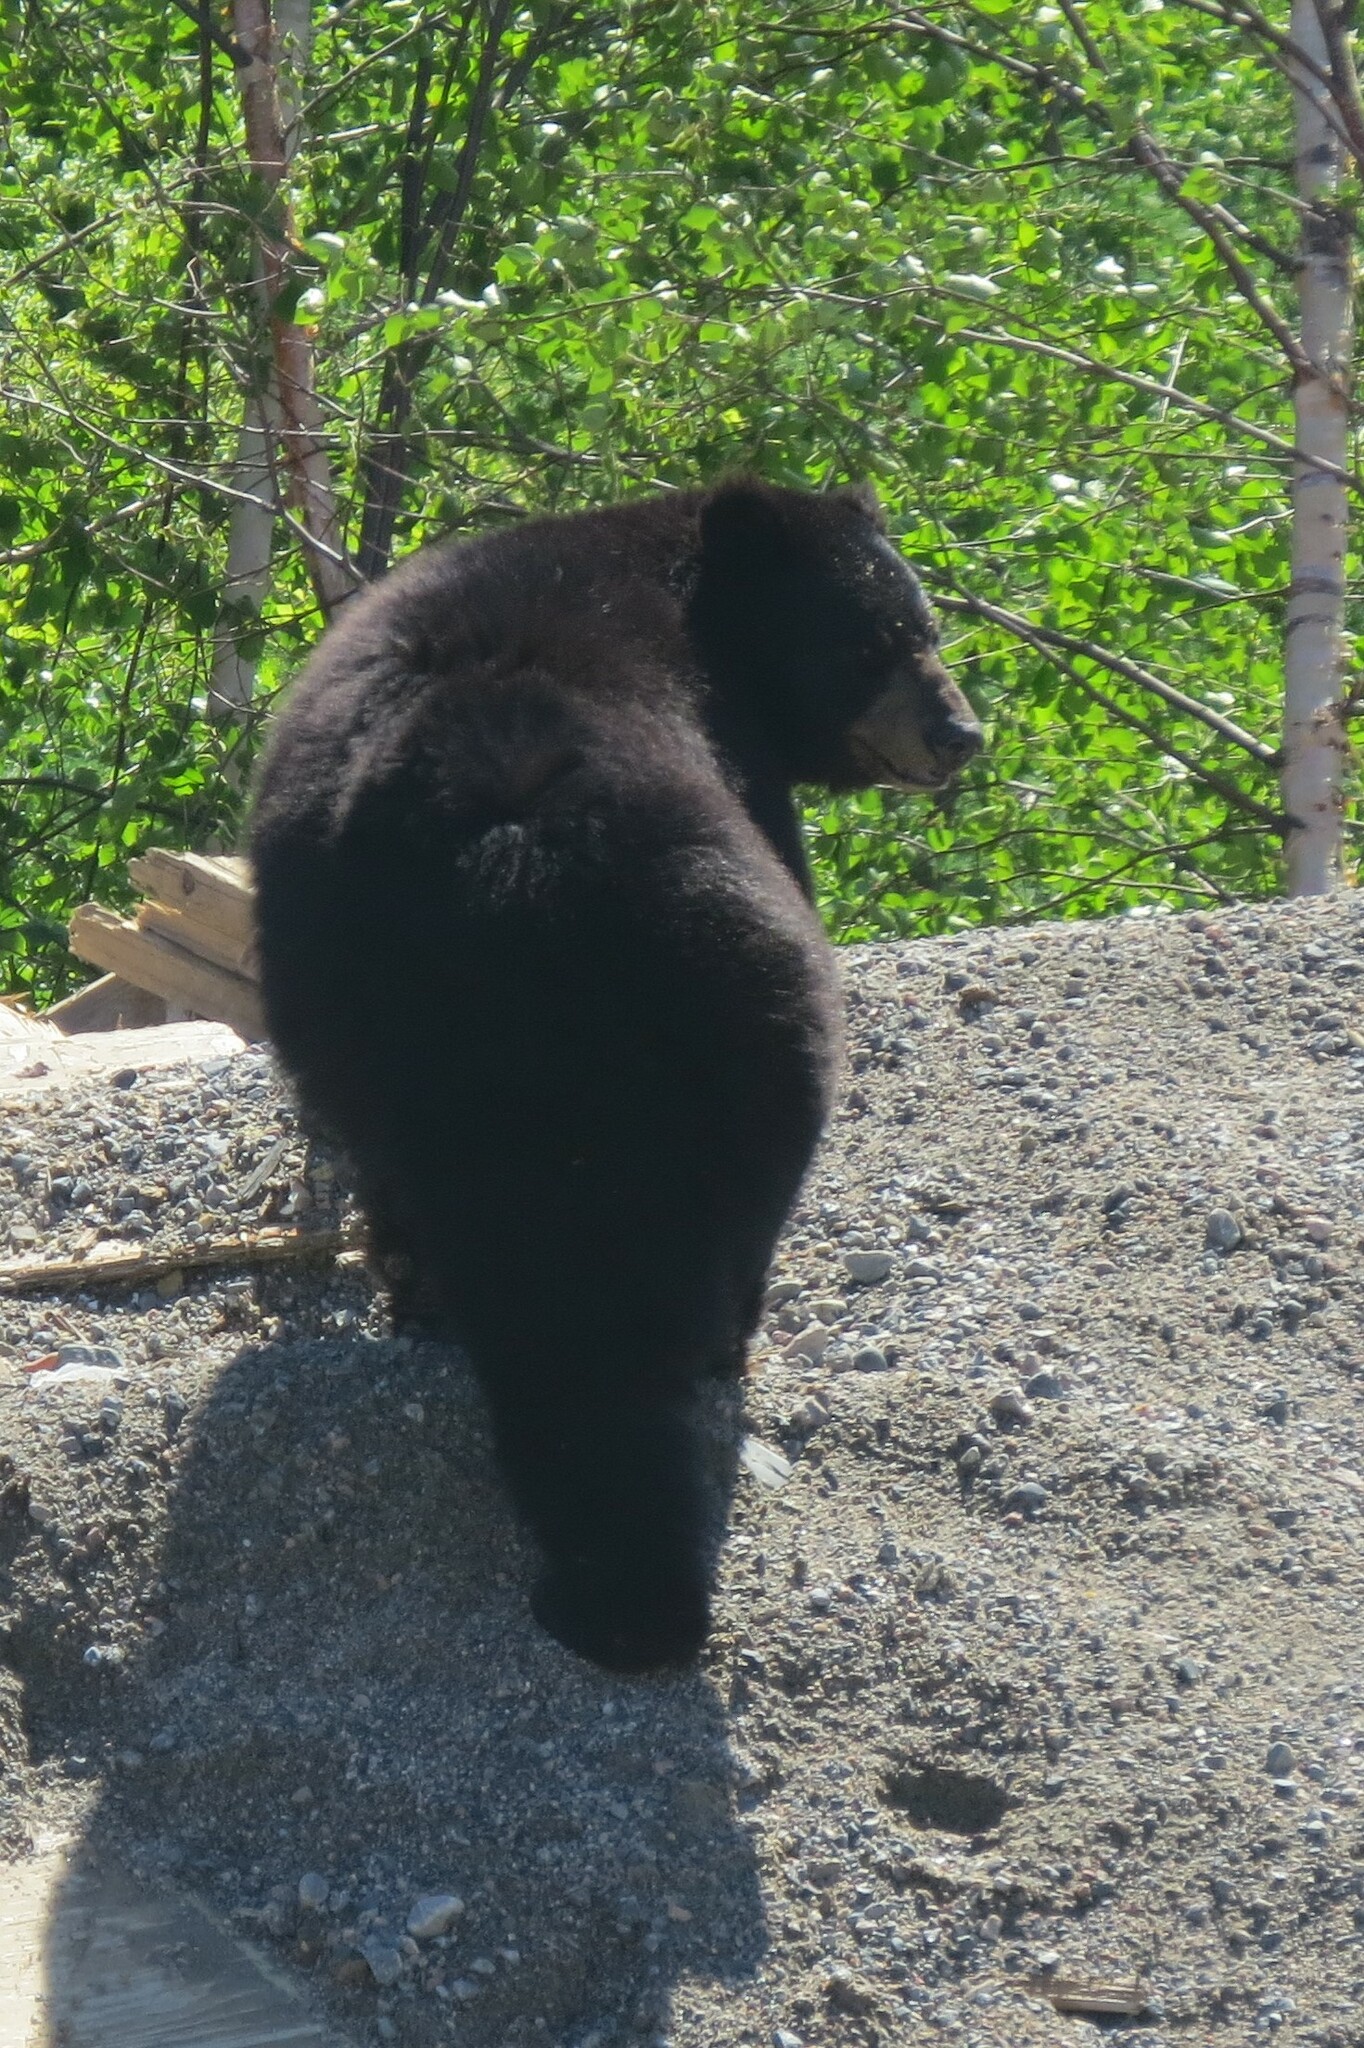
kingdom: Animalia
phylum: Chordata
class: Mammalia
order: Carnivora
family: Ursidae
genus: Ursus
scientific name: Ursus americanus
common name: American black bear
